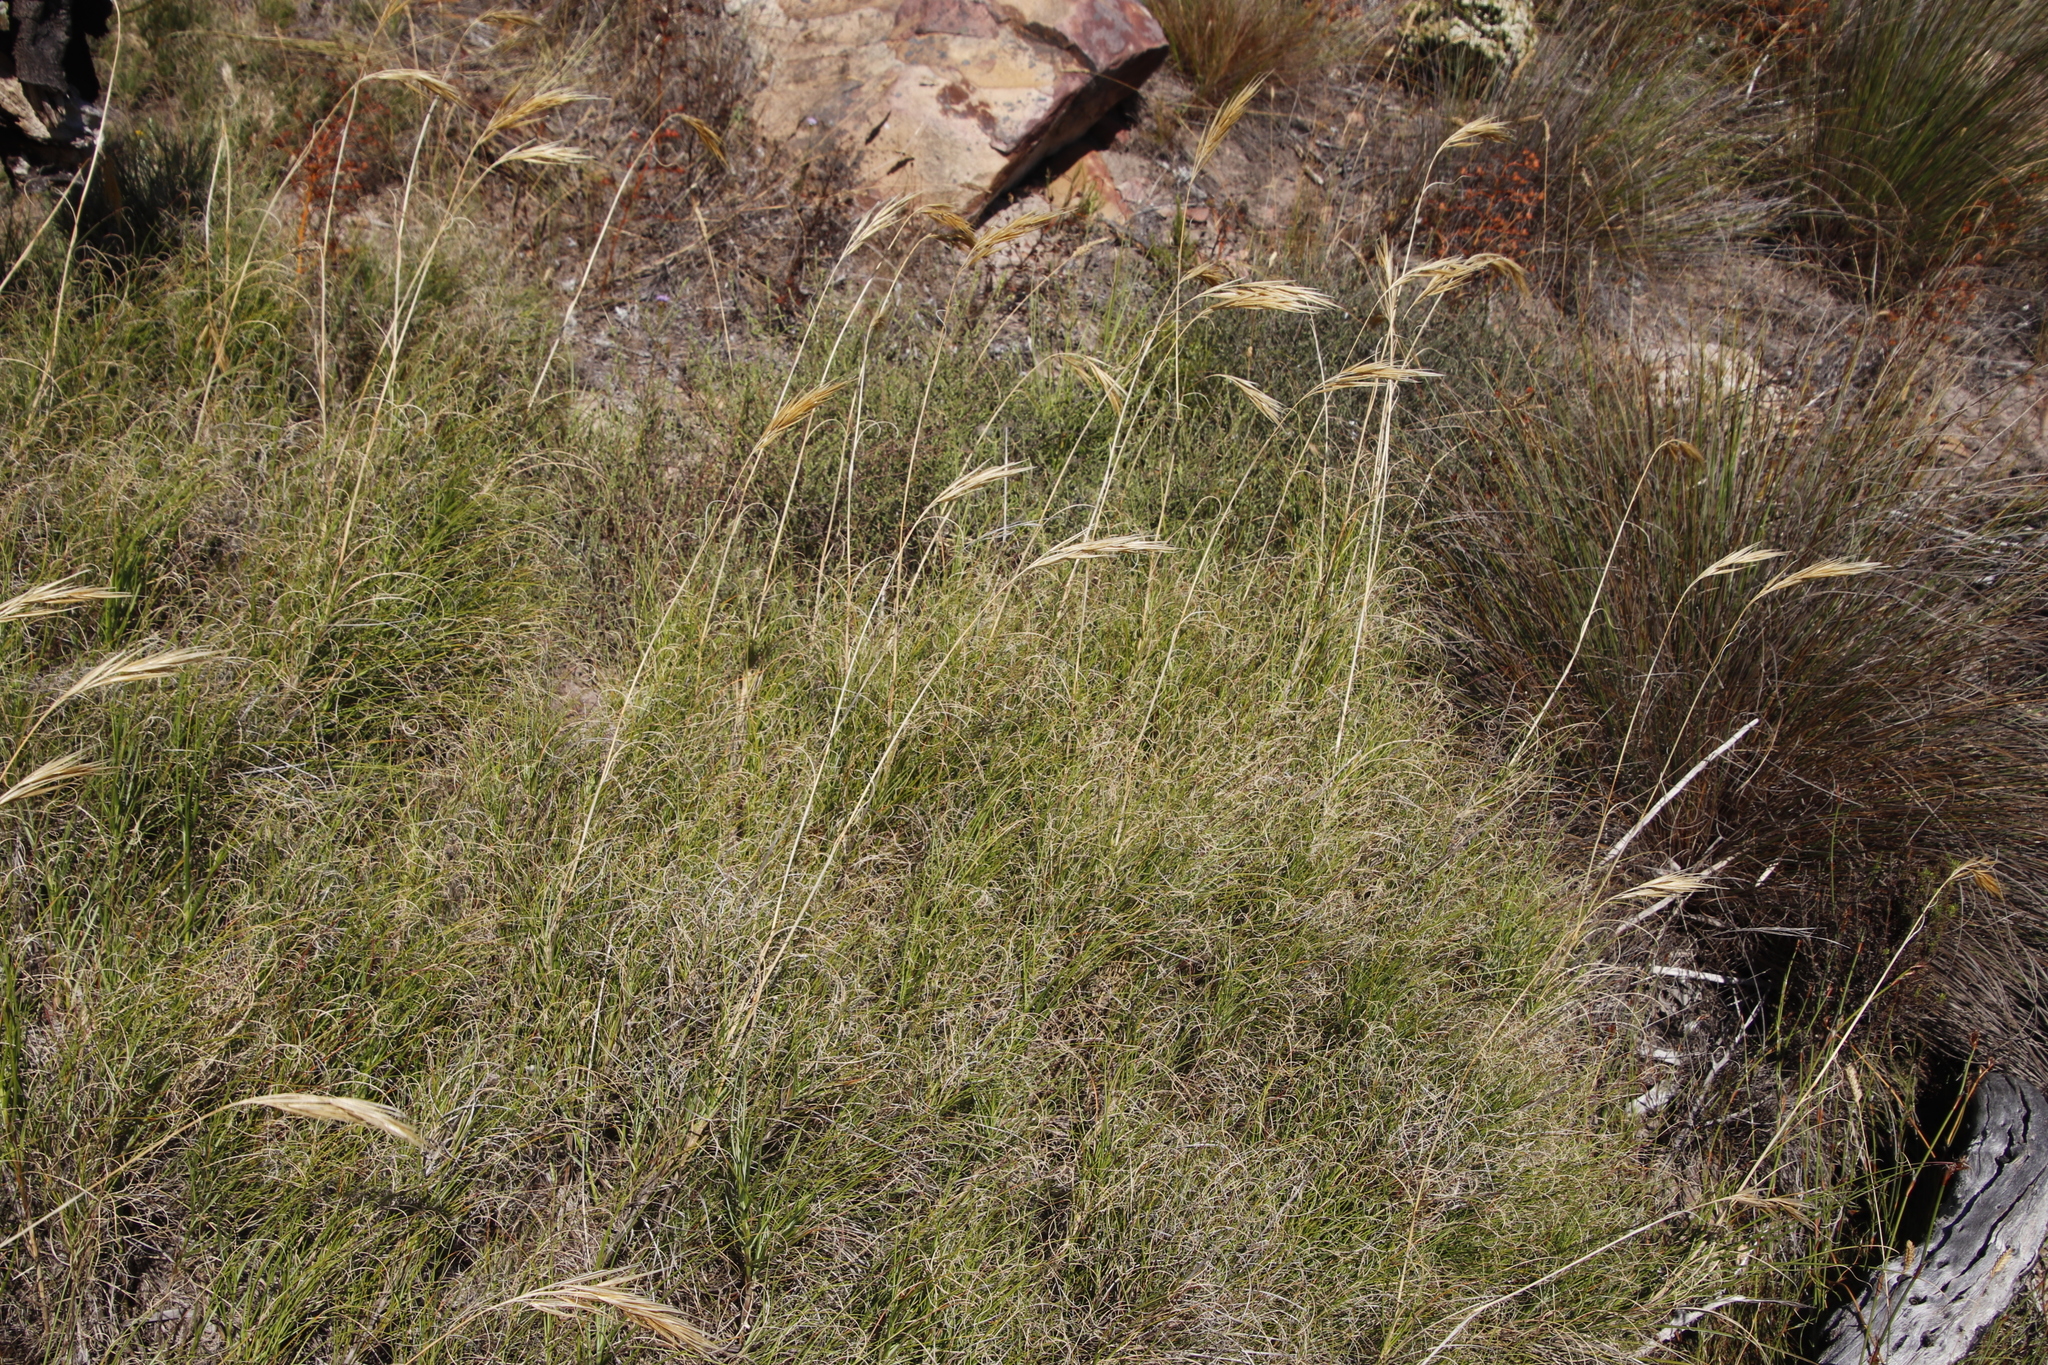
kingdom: Plantae
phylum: Tracheophyta
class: Liliopsida
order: Poales
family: Poaceae
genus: Pseudopentameris
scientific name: Pseudopentameris macrantha
